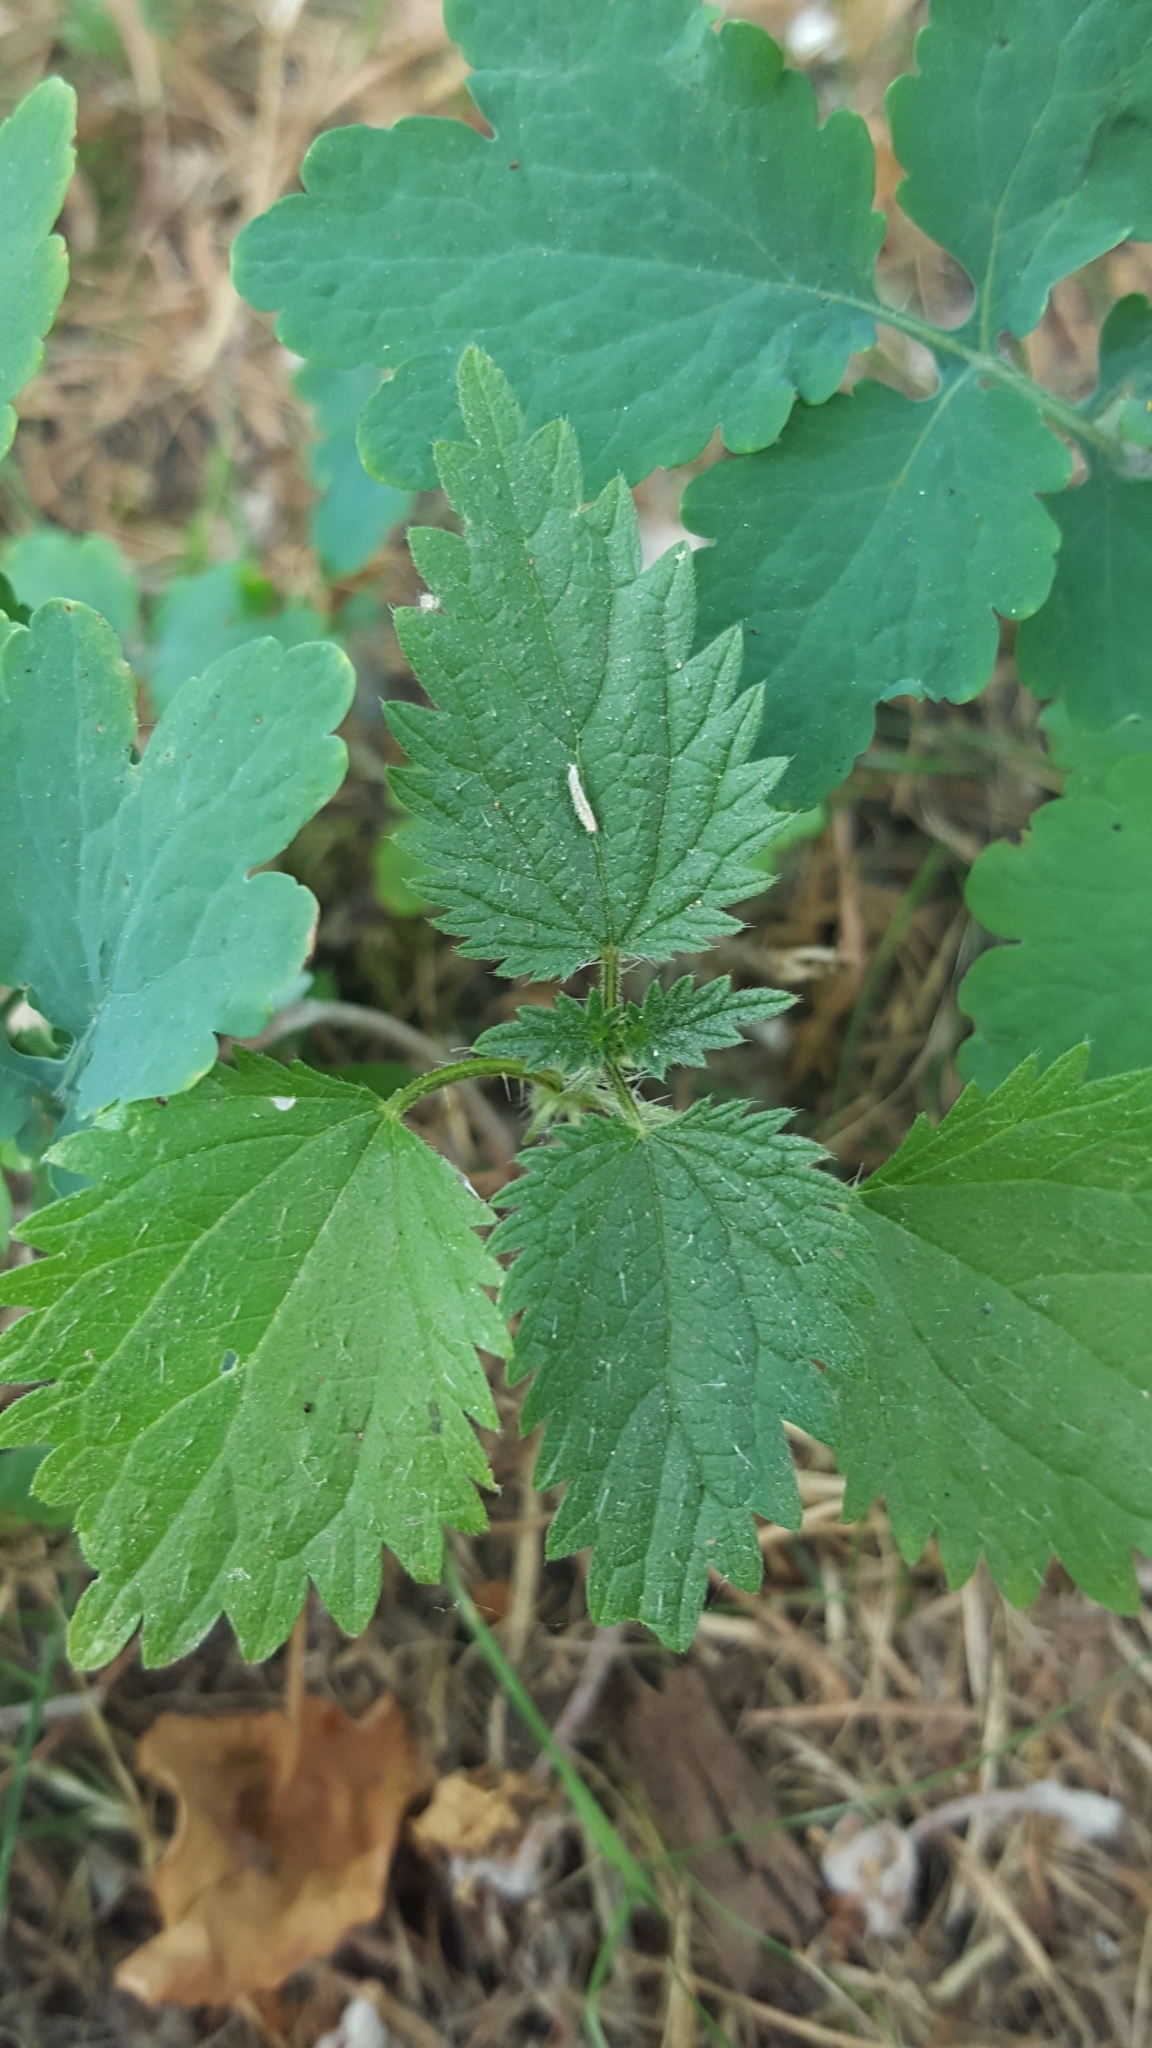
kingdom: Plantae
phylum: Tracheophyta
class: Magnoliopsida
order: Rosales
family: Urticaceae
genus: Urtica
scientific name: Urtica dioica
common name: Common nettle
